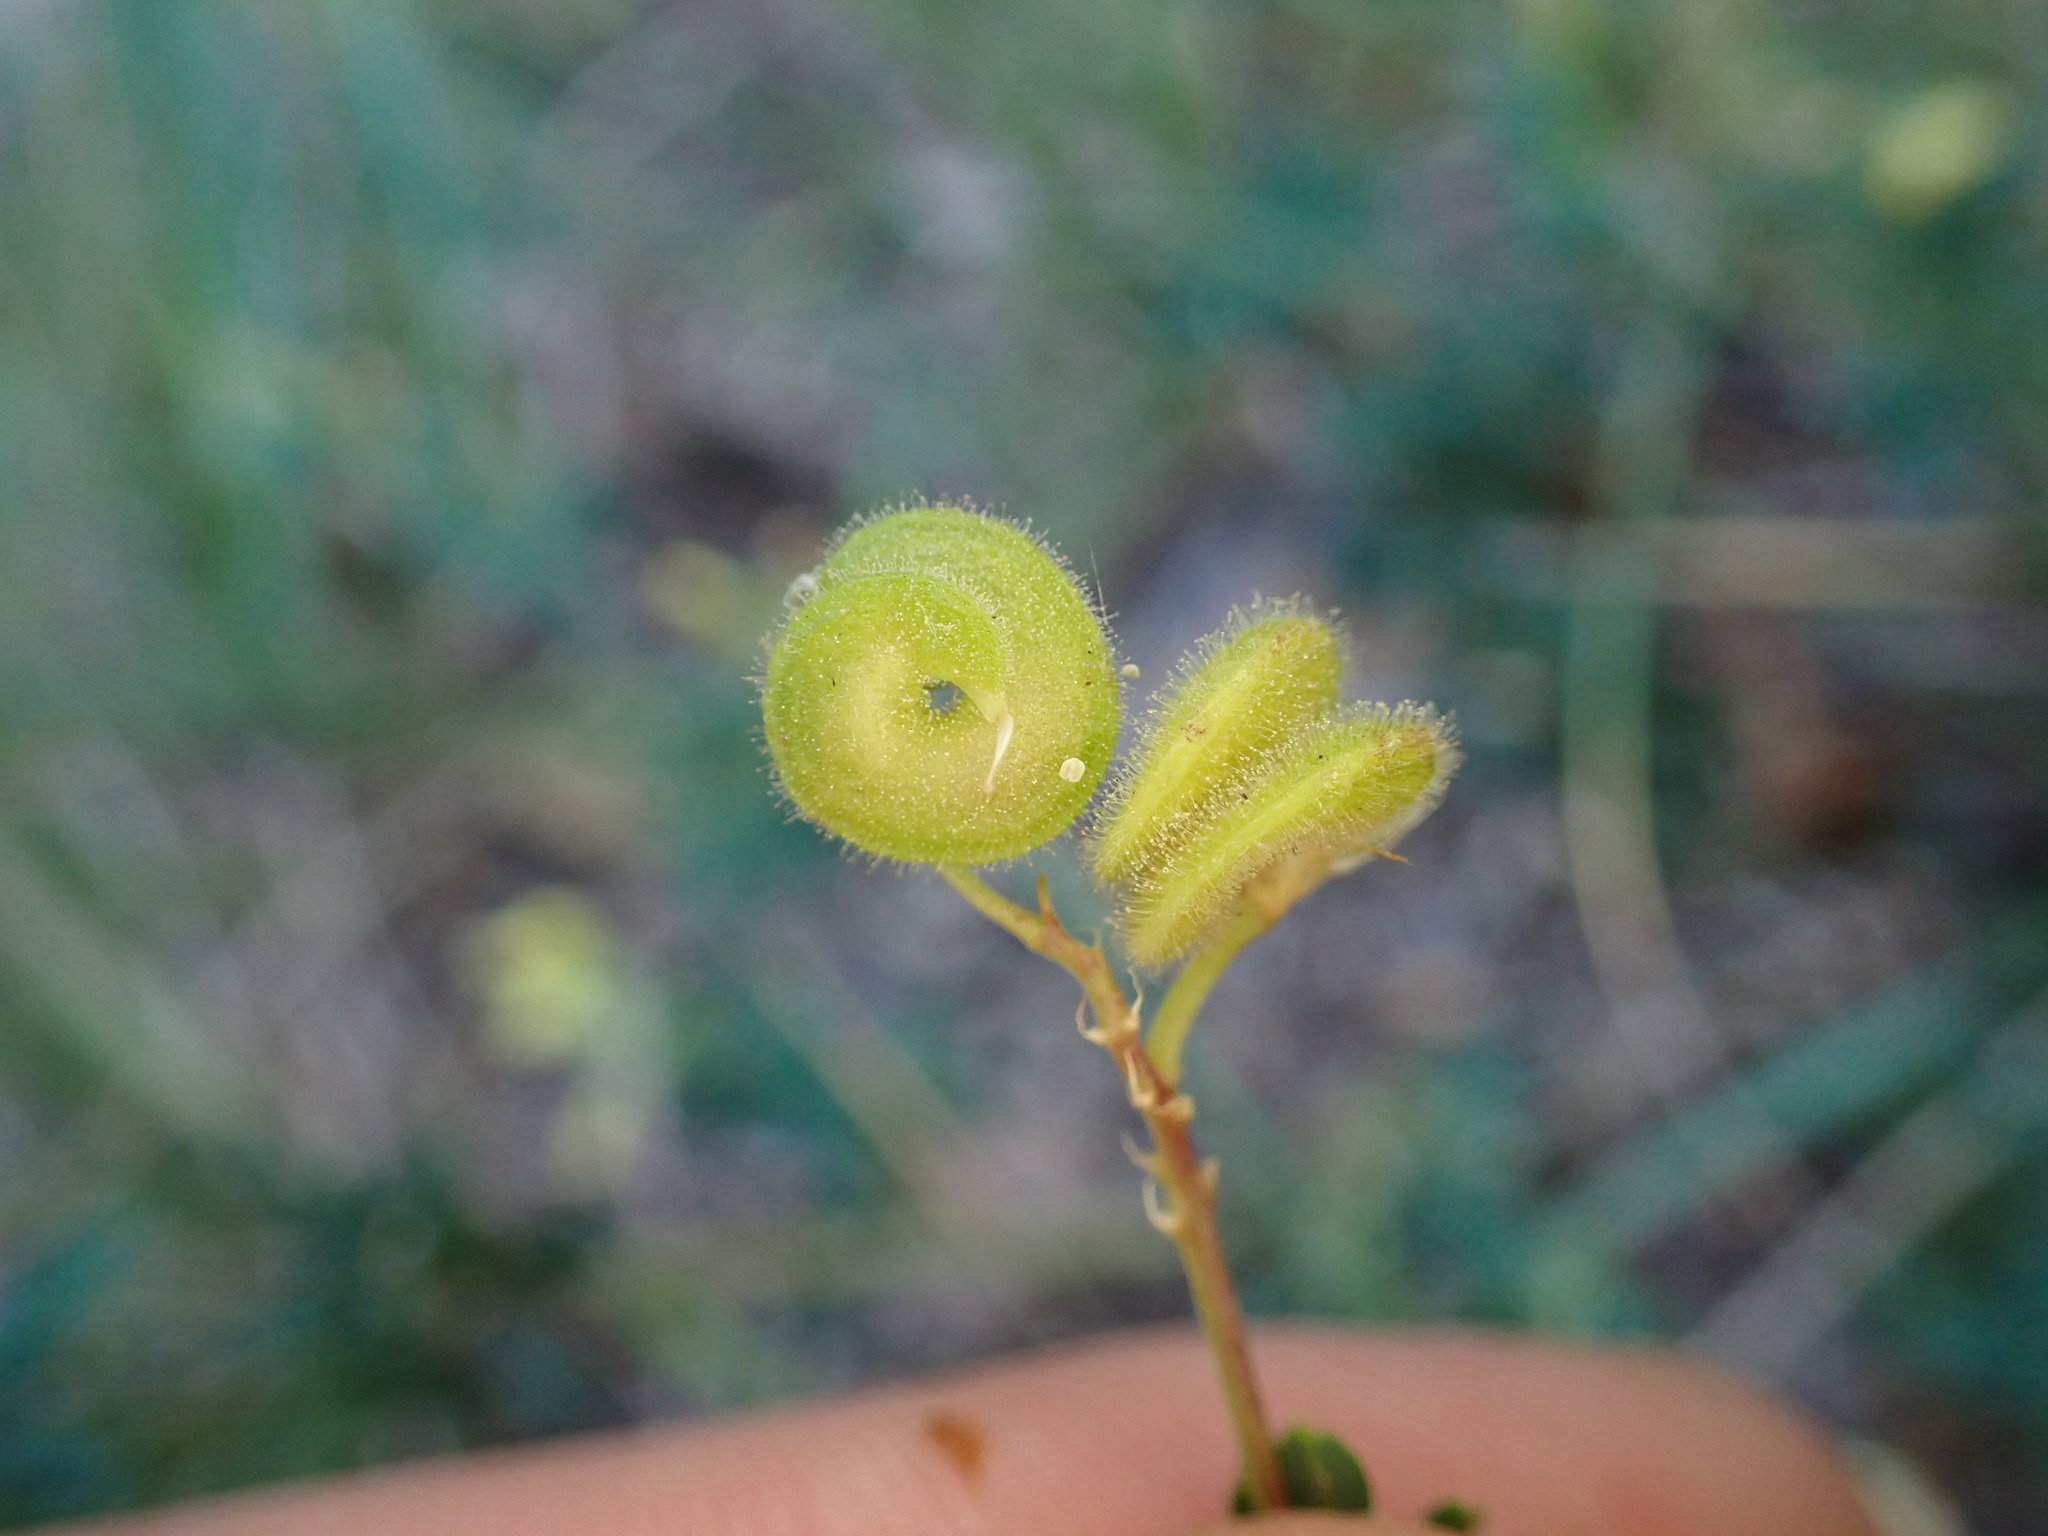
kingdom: Plantae
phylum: Tracheophyta
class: Magnoliopsida
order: Fabales
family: Fabaceae
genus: Medicago
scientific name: Medicago
